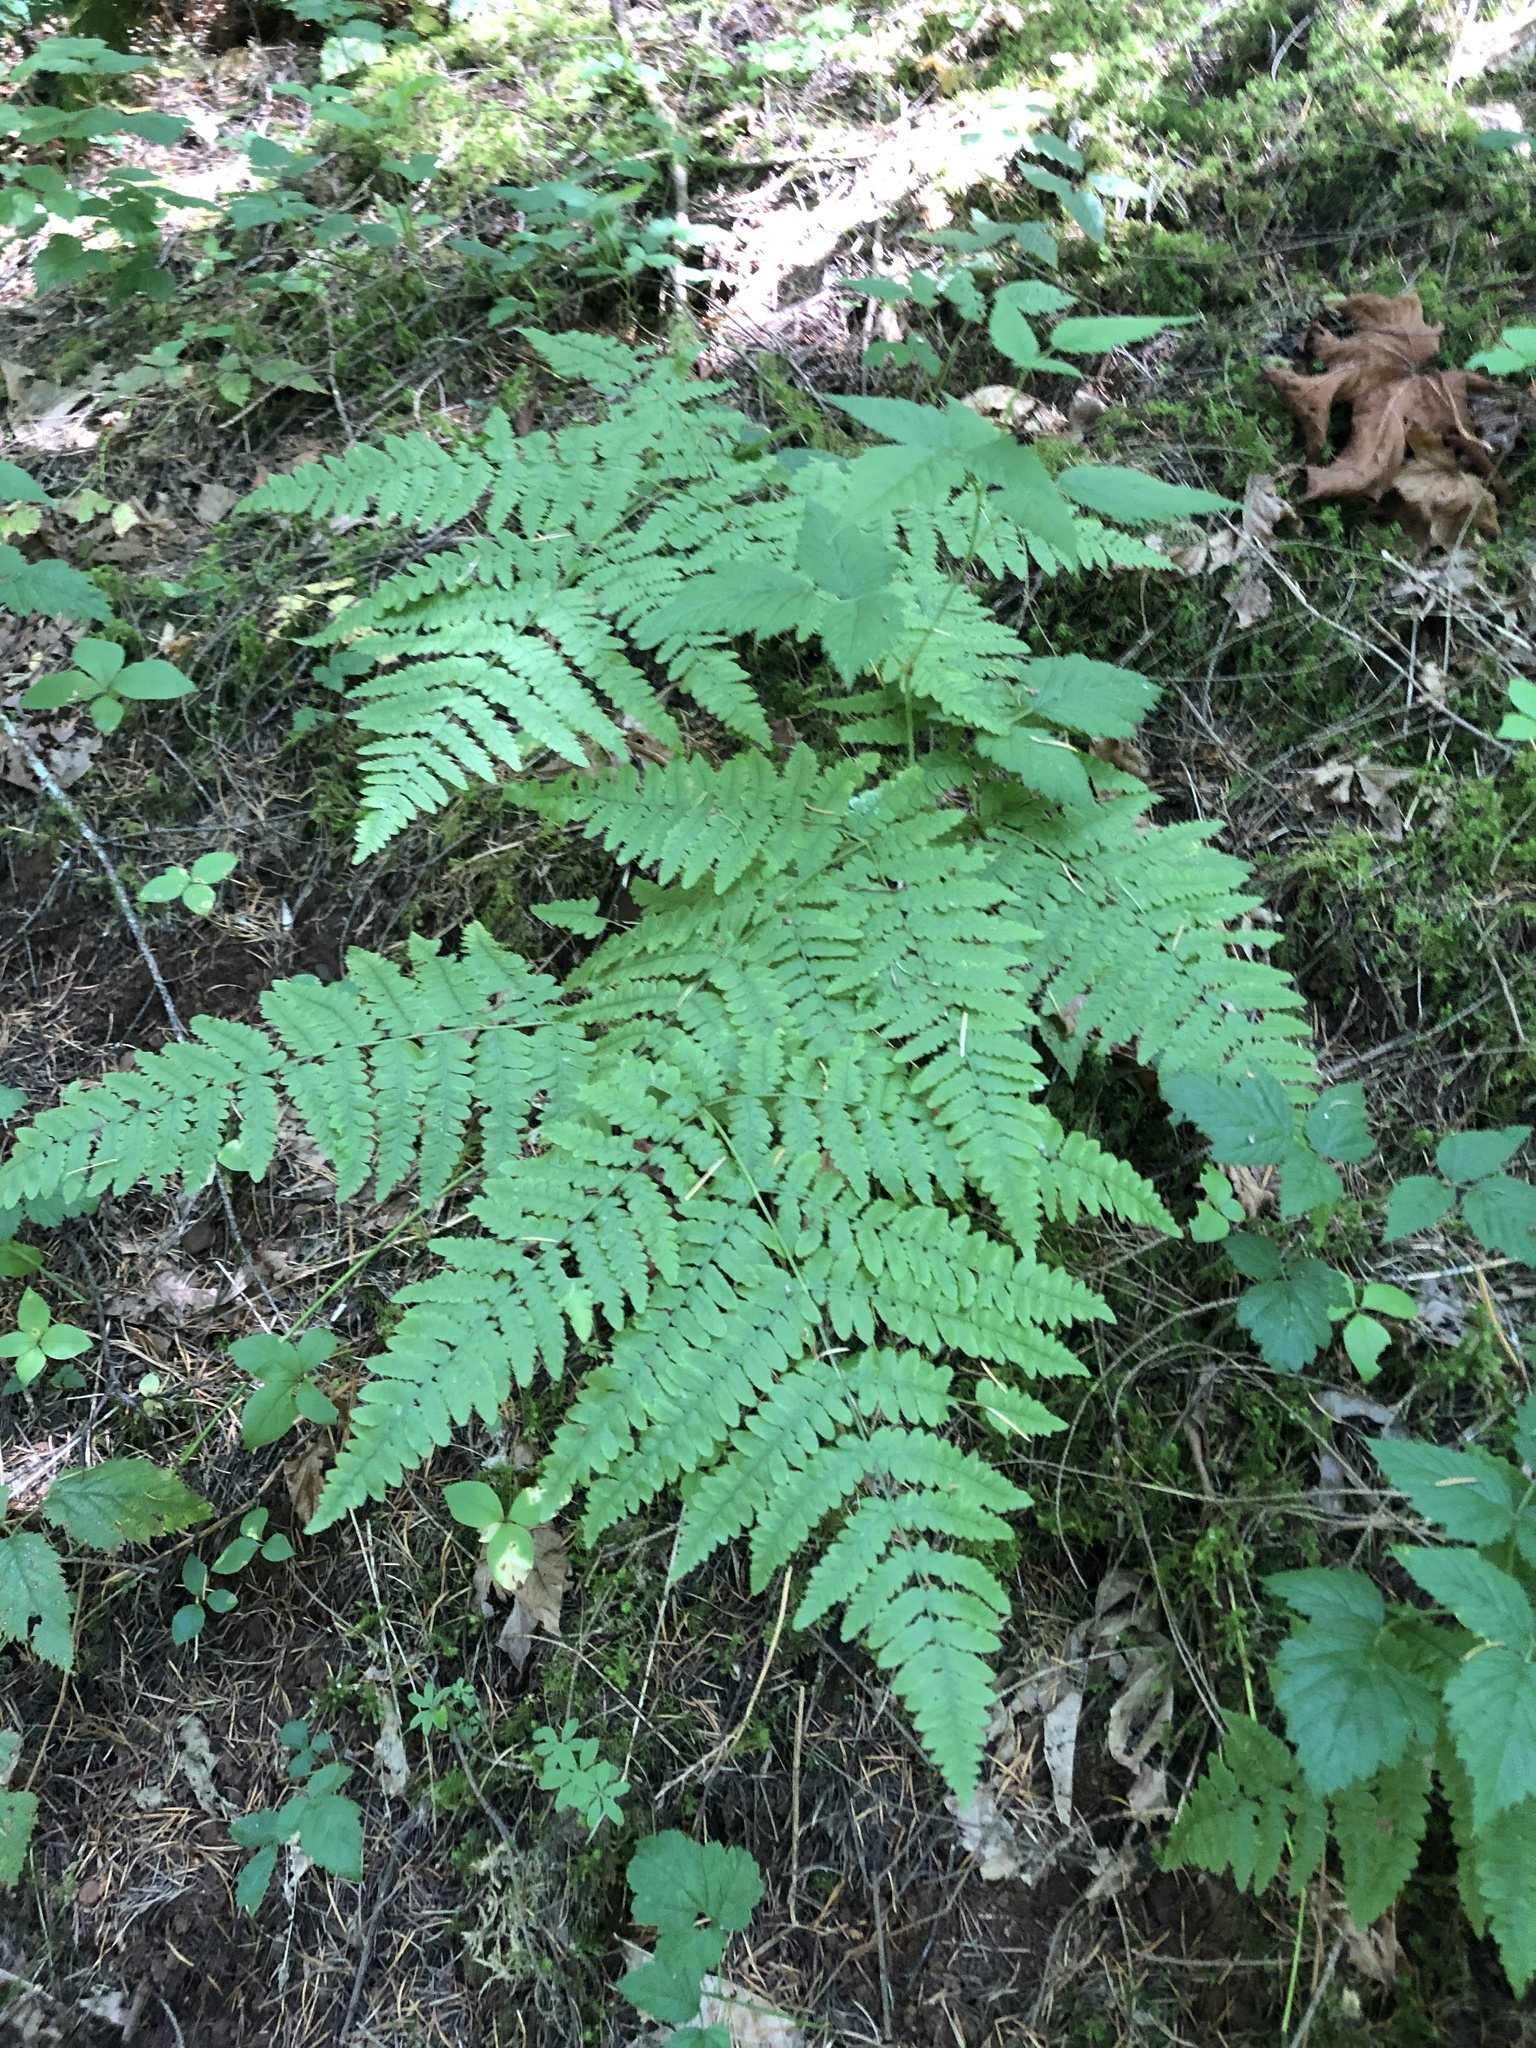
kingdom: Plantae
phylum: Tracheophyta
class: Polypodiopsida
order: Polypodiales
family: Dennstaedtiaceae
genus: Pteridium
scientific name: Pteridium aquilinum
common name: Bracken
